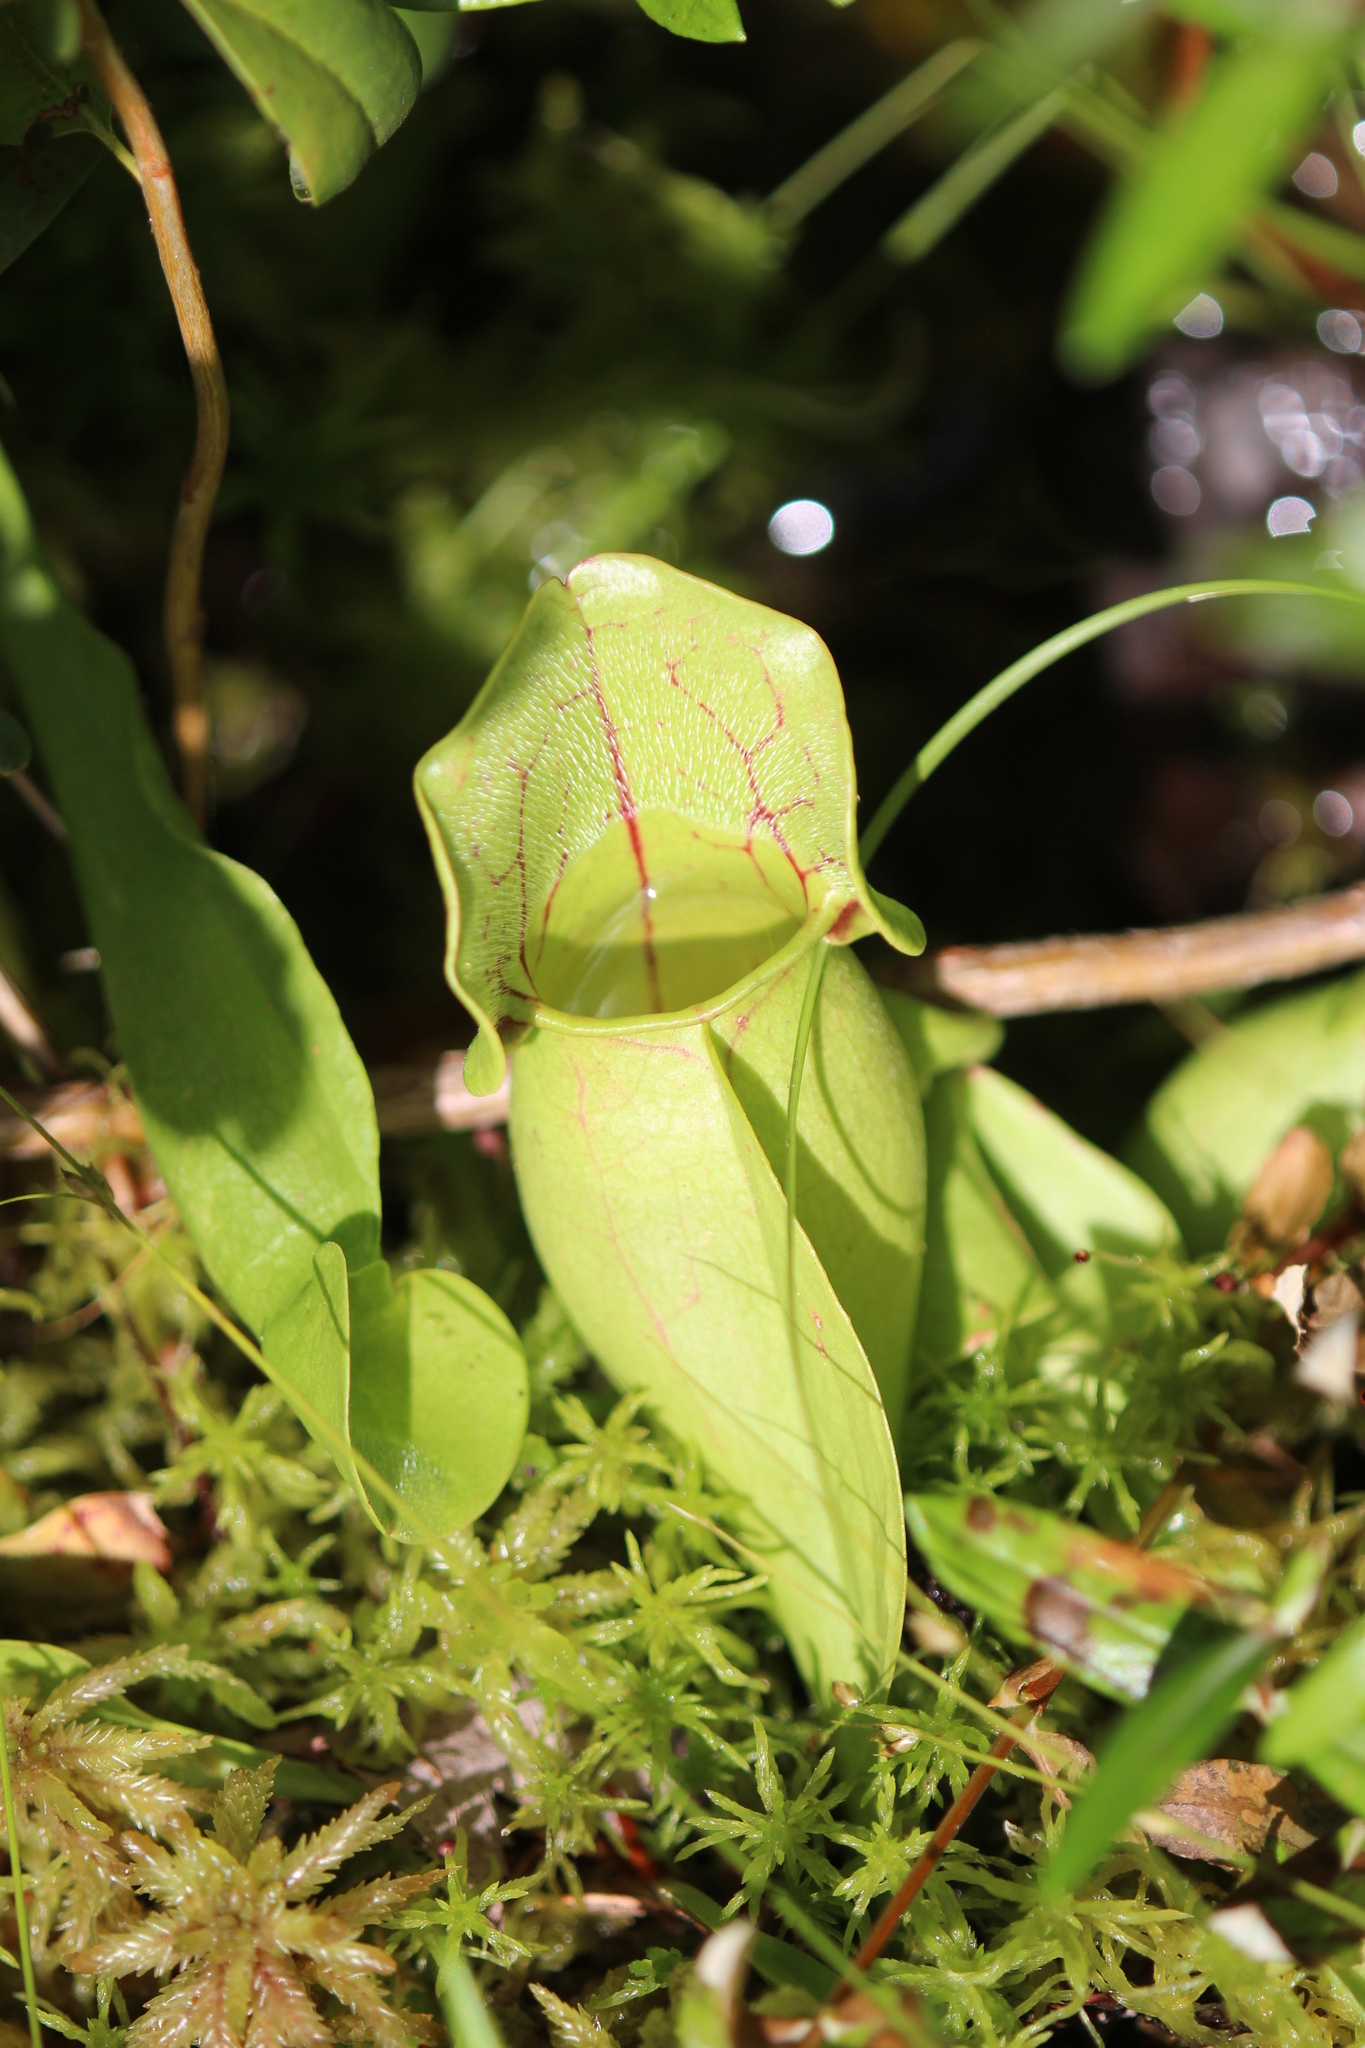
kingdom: Plantae
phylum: Tracheophyta
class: Magnoliopsida
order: Ericales
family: Sarraceniaceae
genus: Sarracenia
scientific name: Sarracenia purpurea
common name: Pitcherplant
